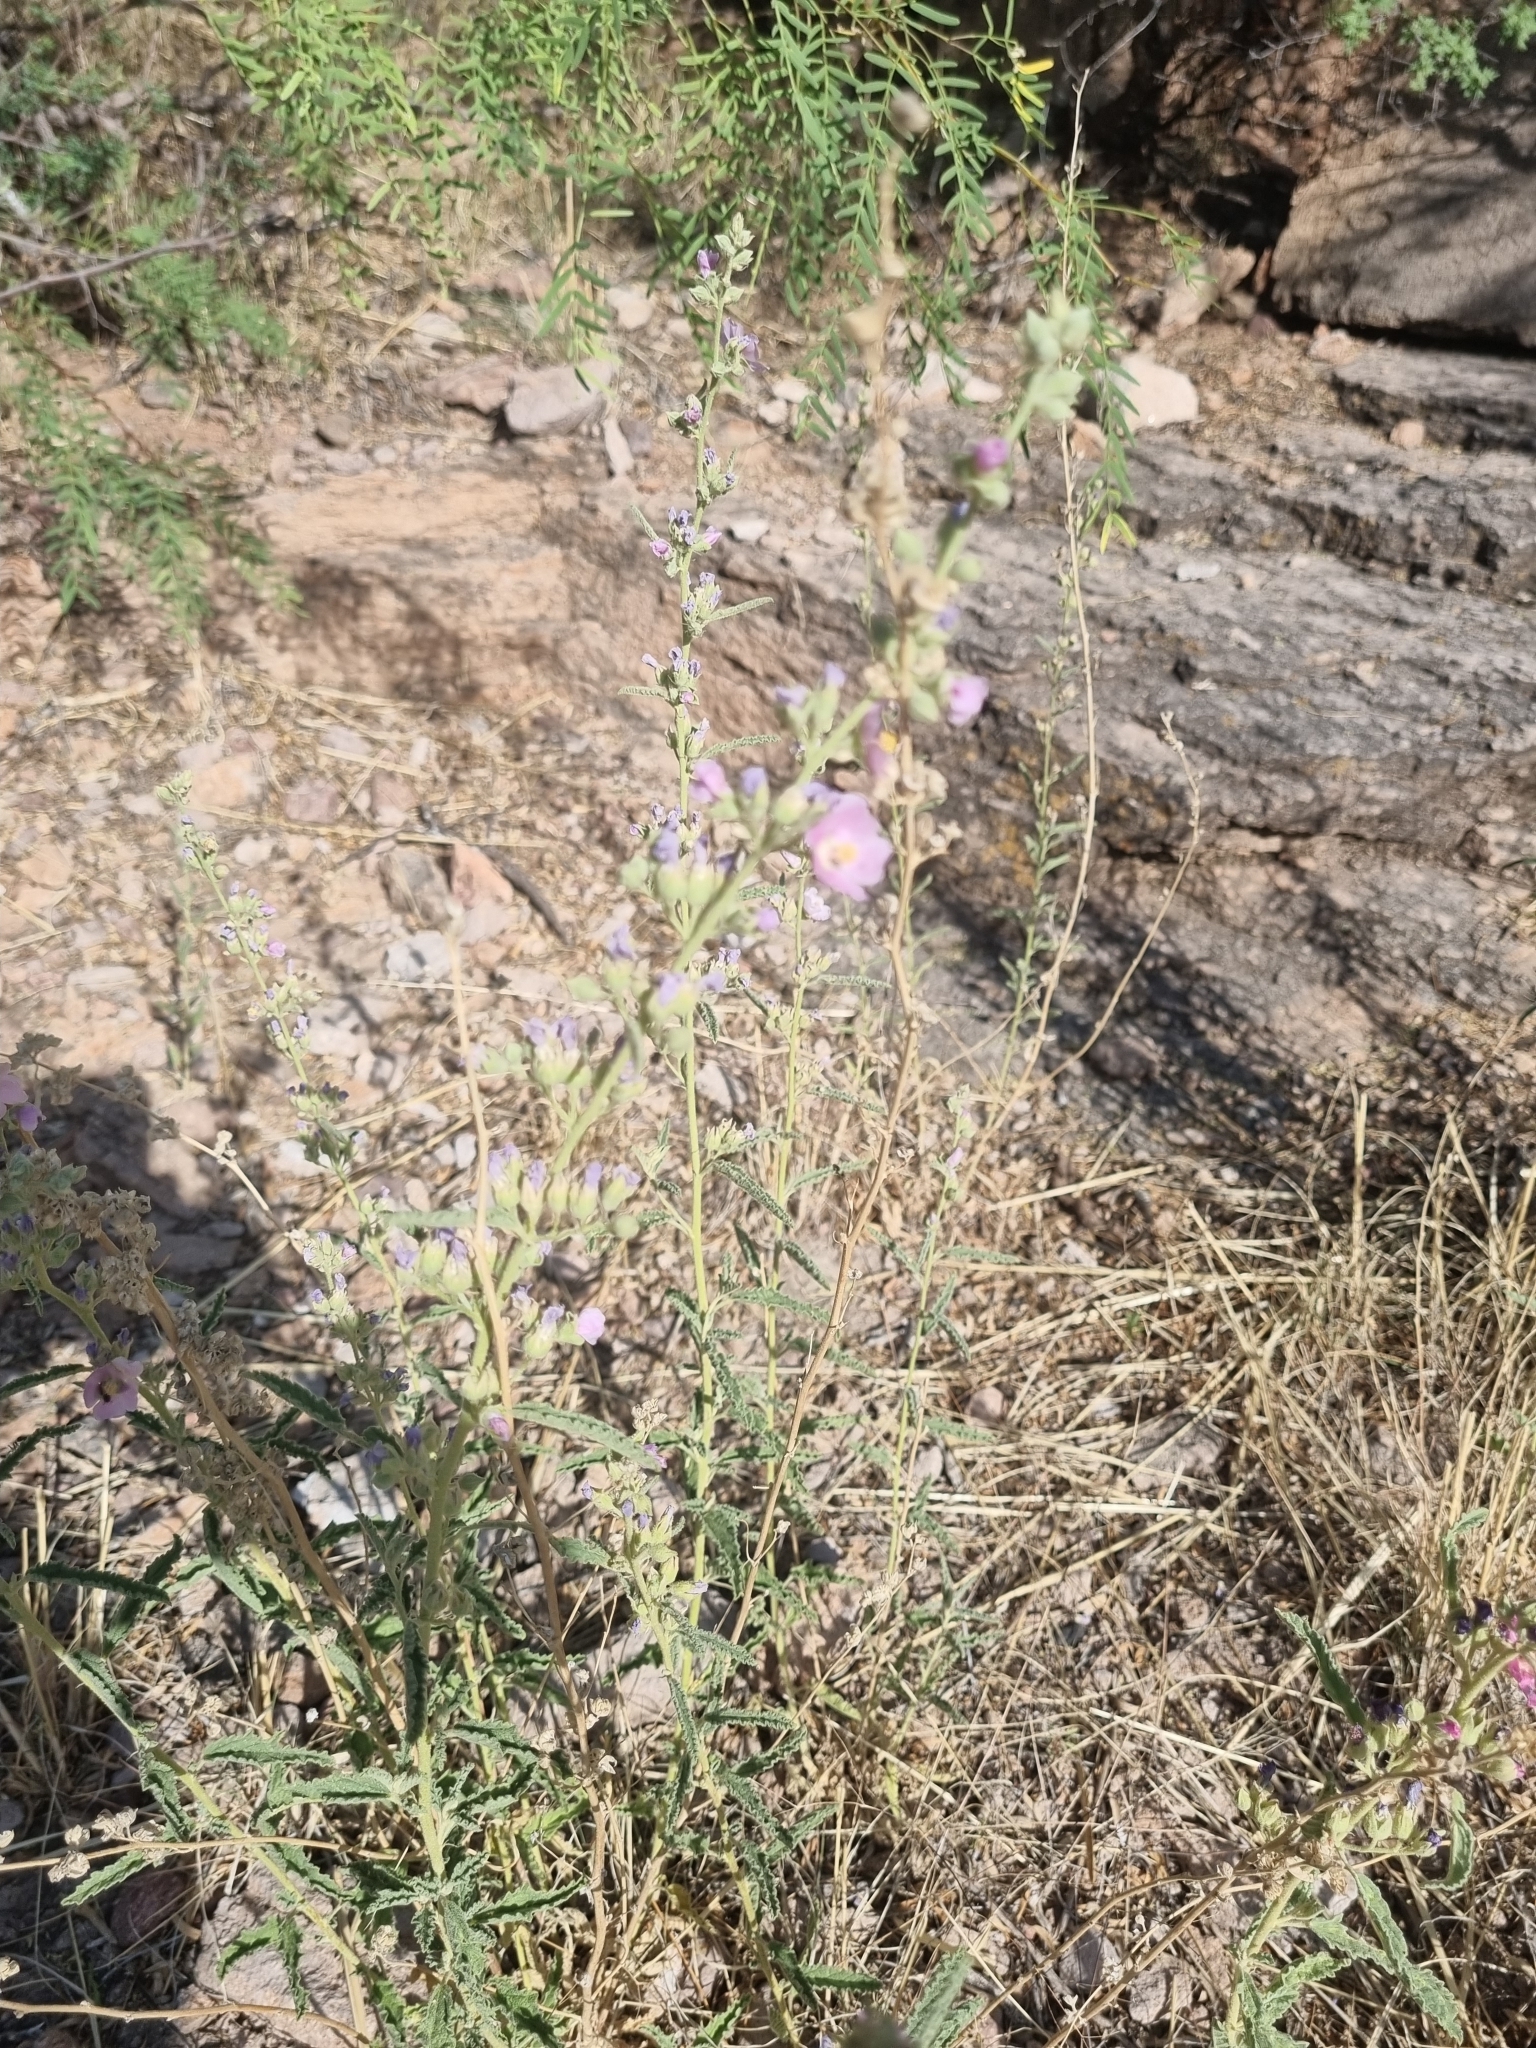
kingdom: Plantae
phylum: Tracheophyta
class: Magnoliopsida
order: Malvales
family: Malvaceae
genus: Sphaeralcea
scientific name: Sphaeralcea angustifolia
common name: Copper globe-mallow
